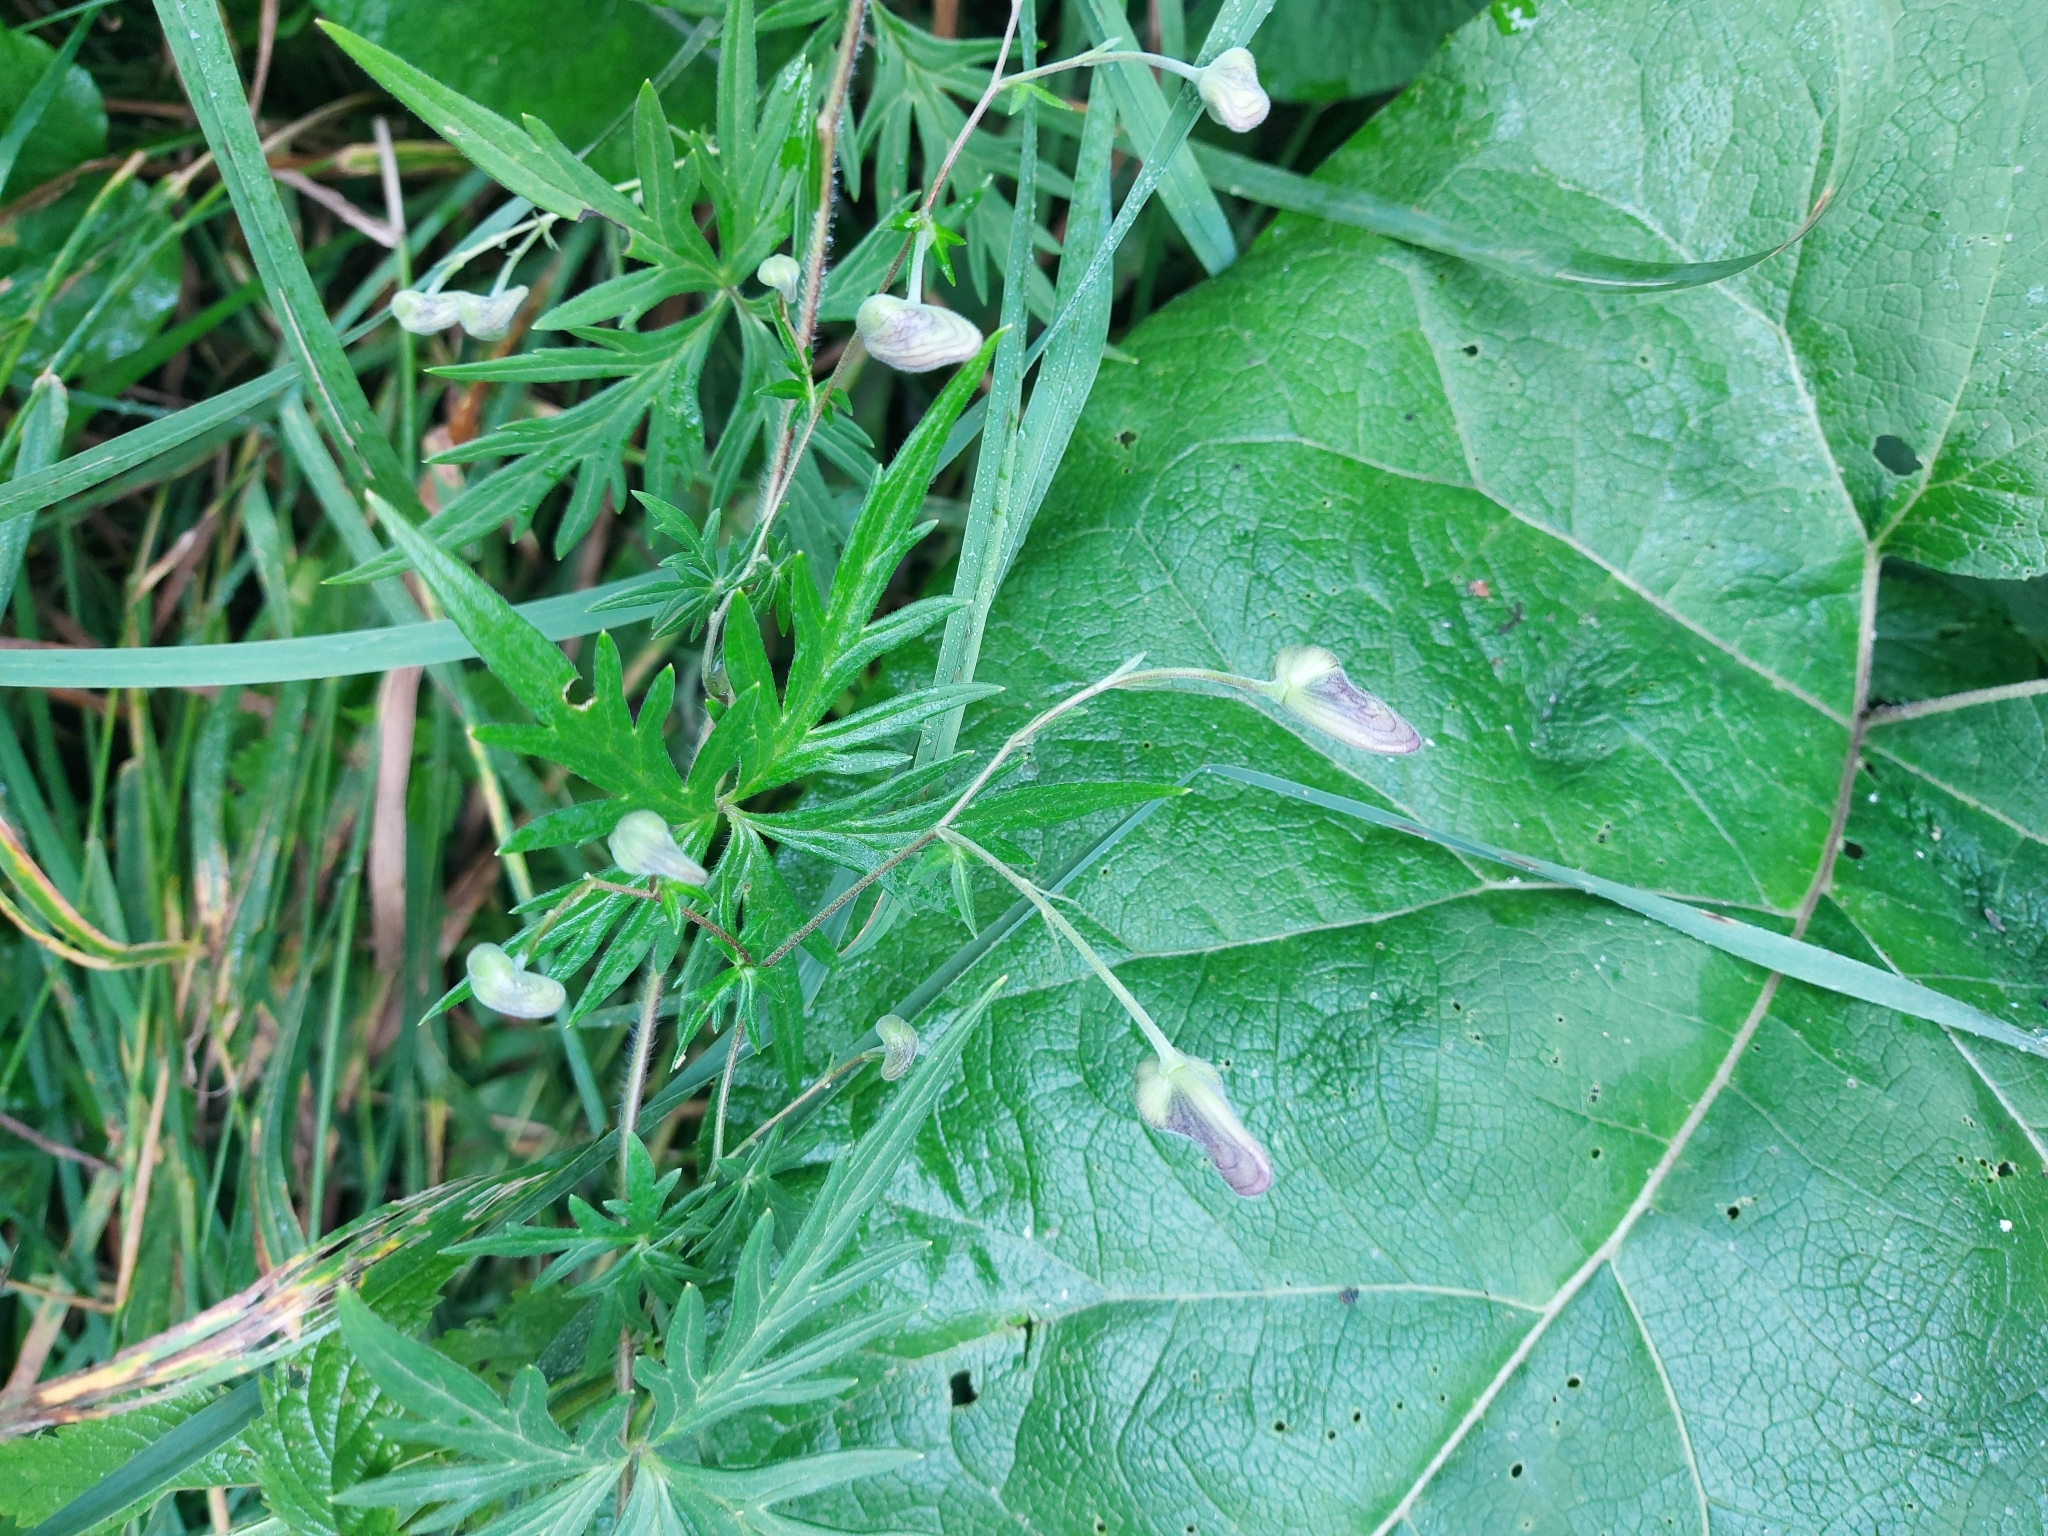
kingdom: Plantae
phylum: Tracheophyta
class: Magnoliopsida
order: Geraniales
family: Geraniaceae
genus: Geranium
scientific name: Geranium sibiricum
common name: Siberian crane's-bill
